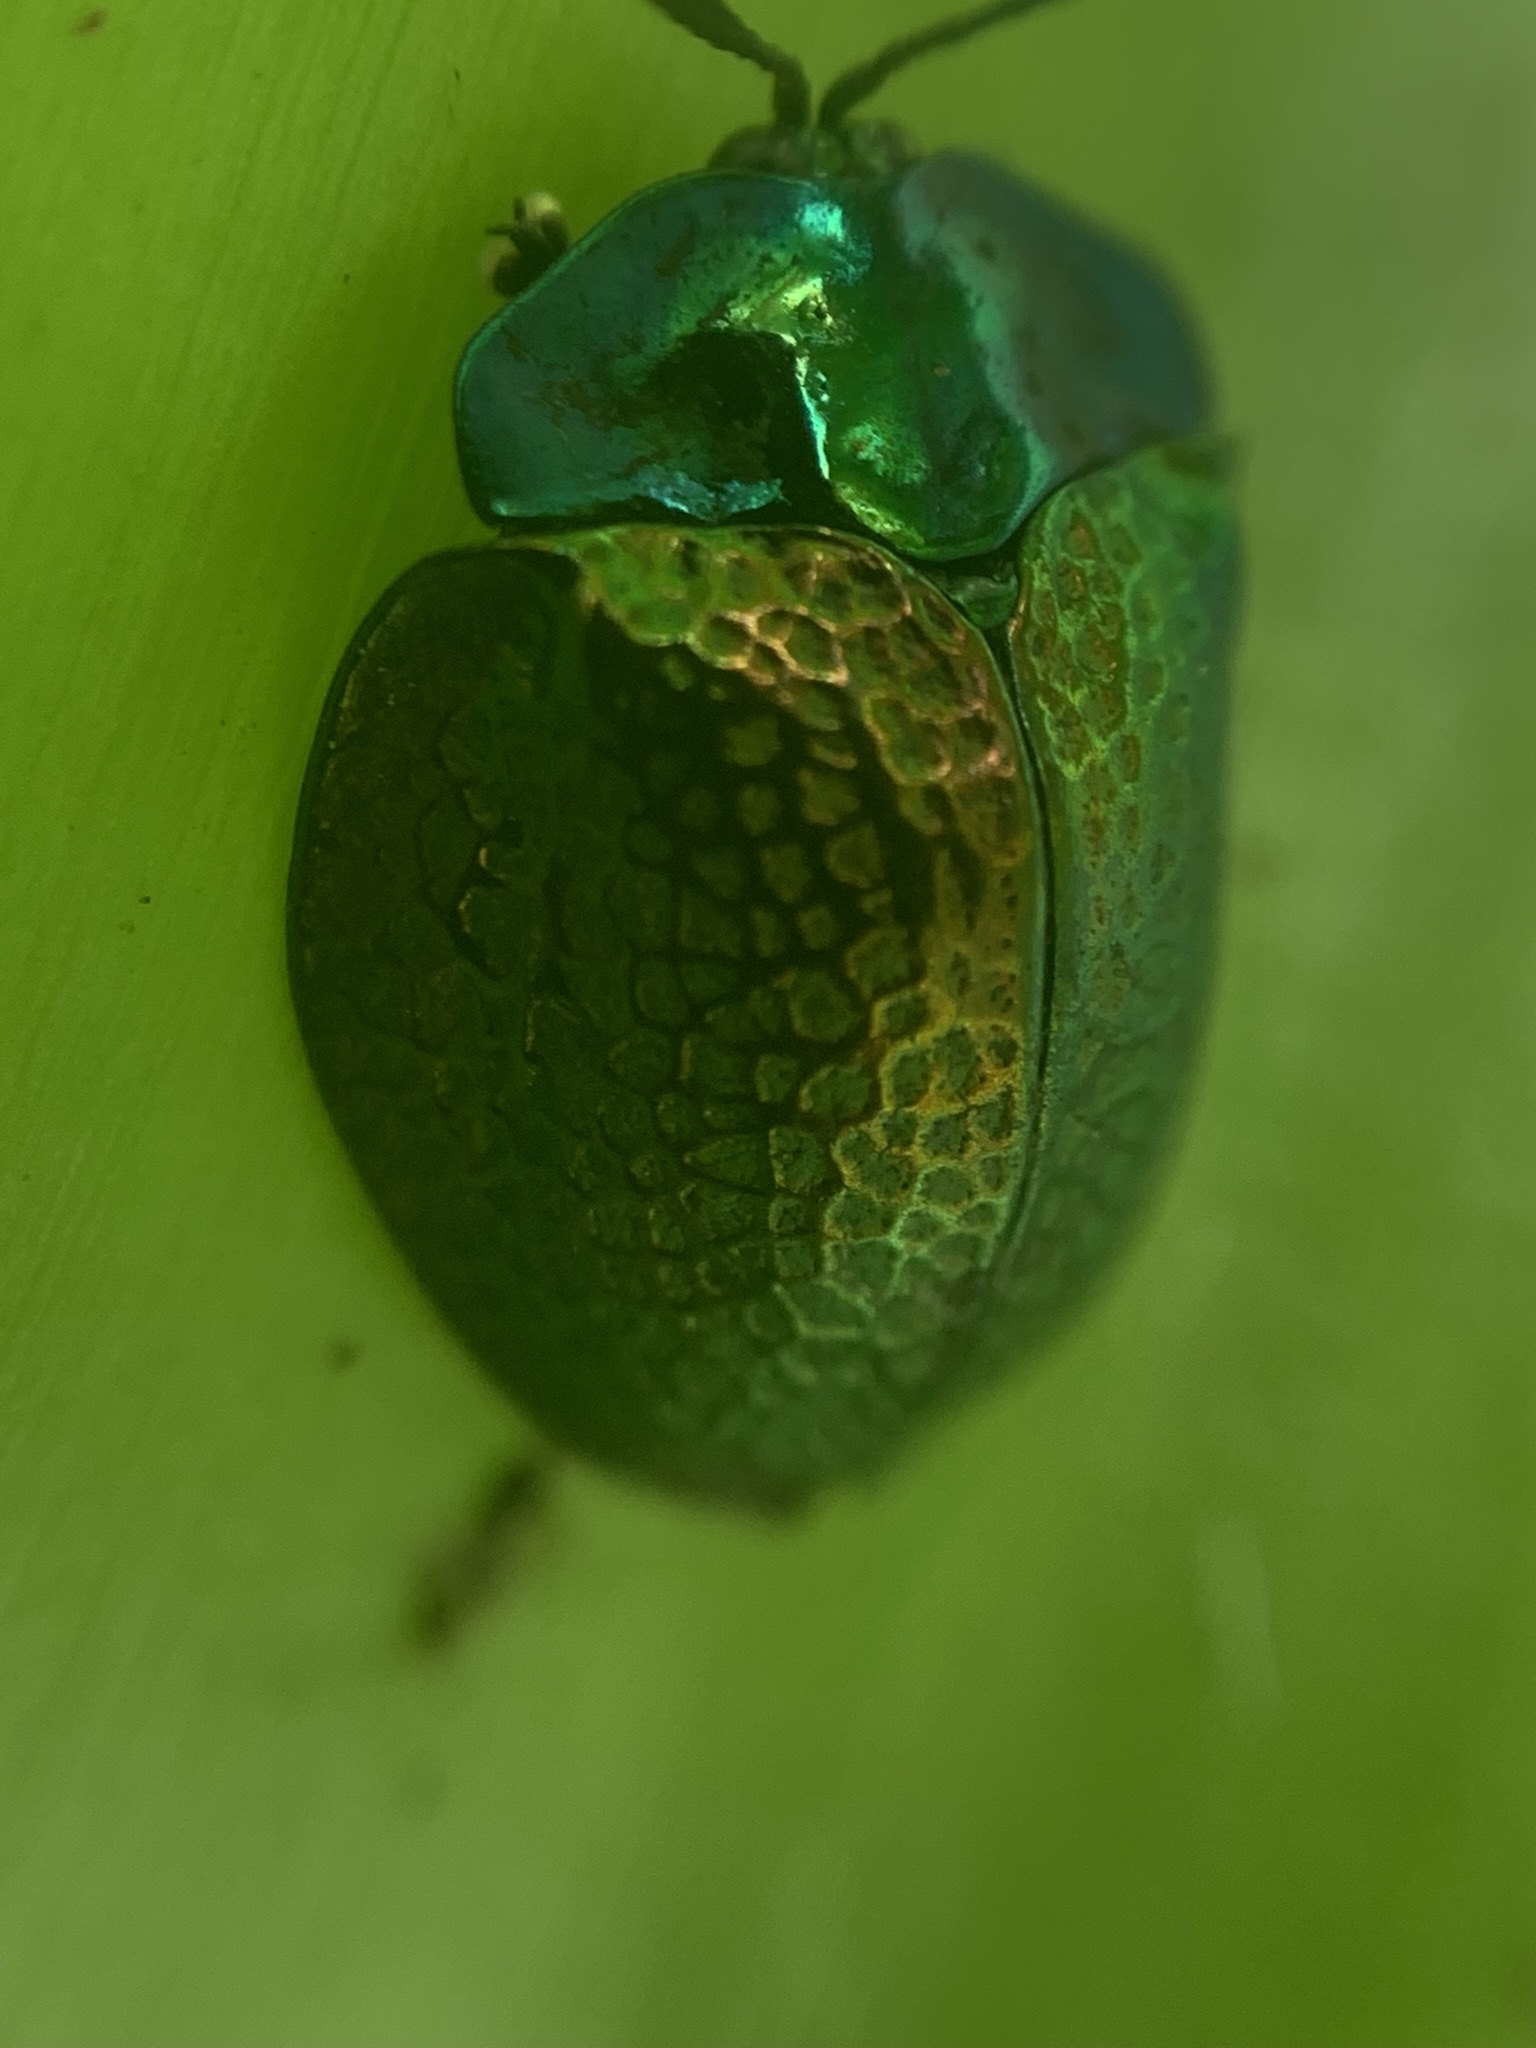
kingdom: Animalia
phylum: Arthropoda
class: Insecta
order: Coleoptera
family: Chrysomelidae
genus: Stolas
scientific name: Stolas festiva
